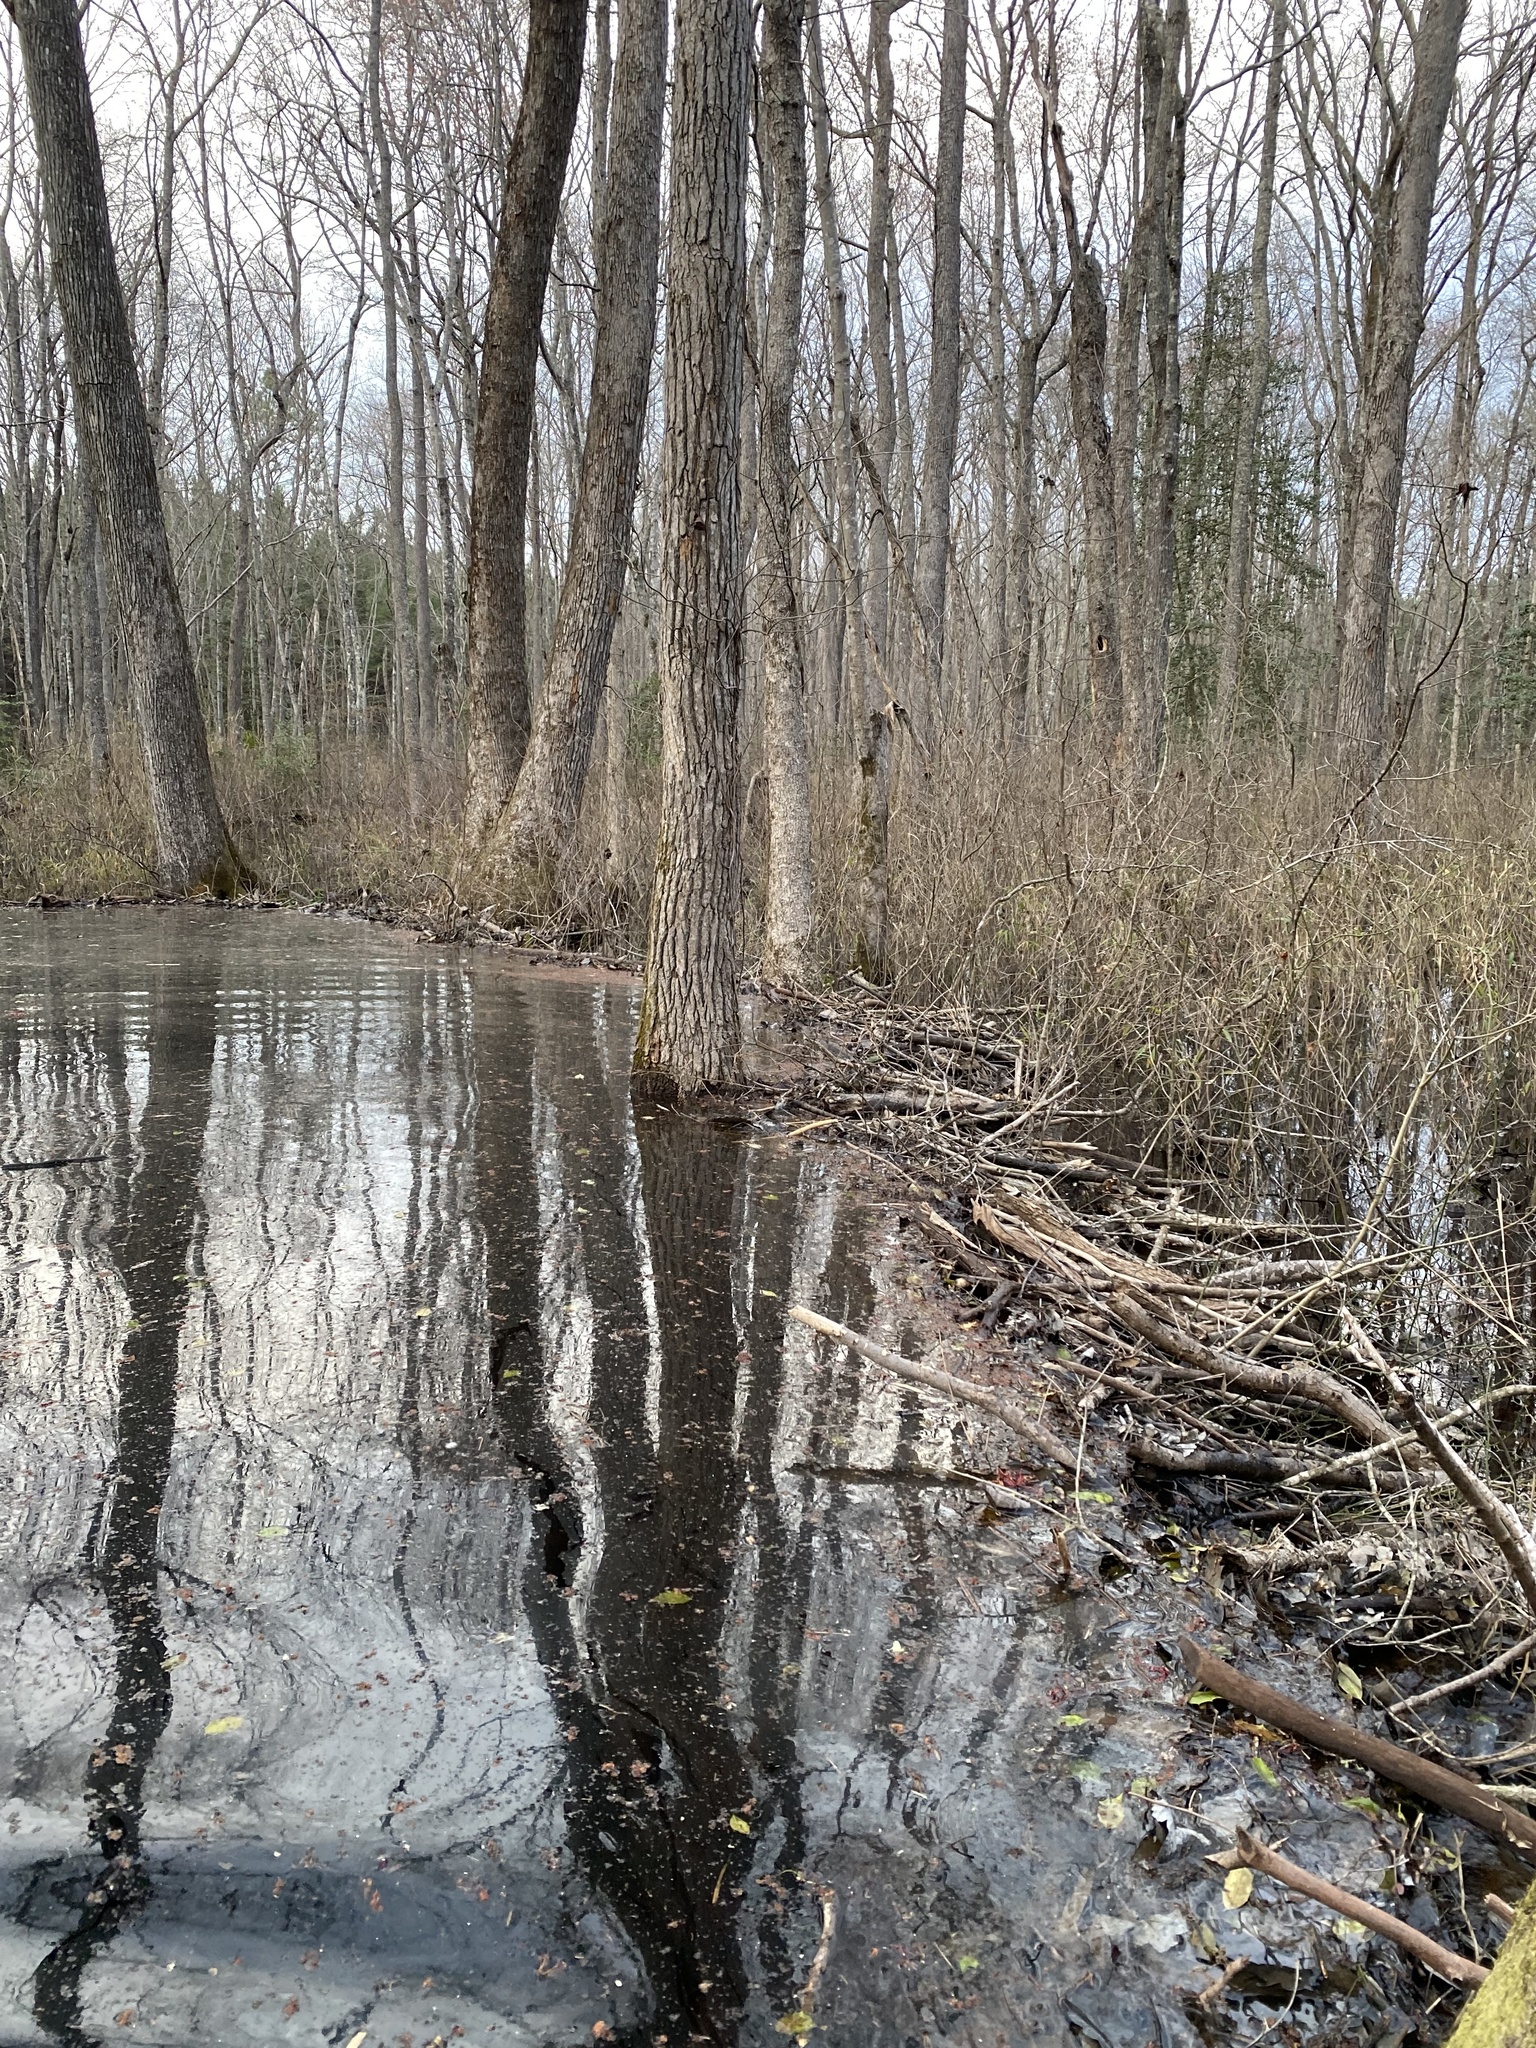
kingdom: Animalia
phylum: Chordata
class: Mammalia
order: Rodentia
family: Castoridae
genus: Castor
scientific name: Castor canadensis
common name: American beaver
